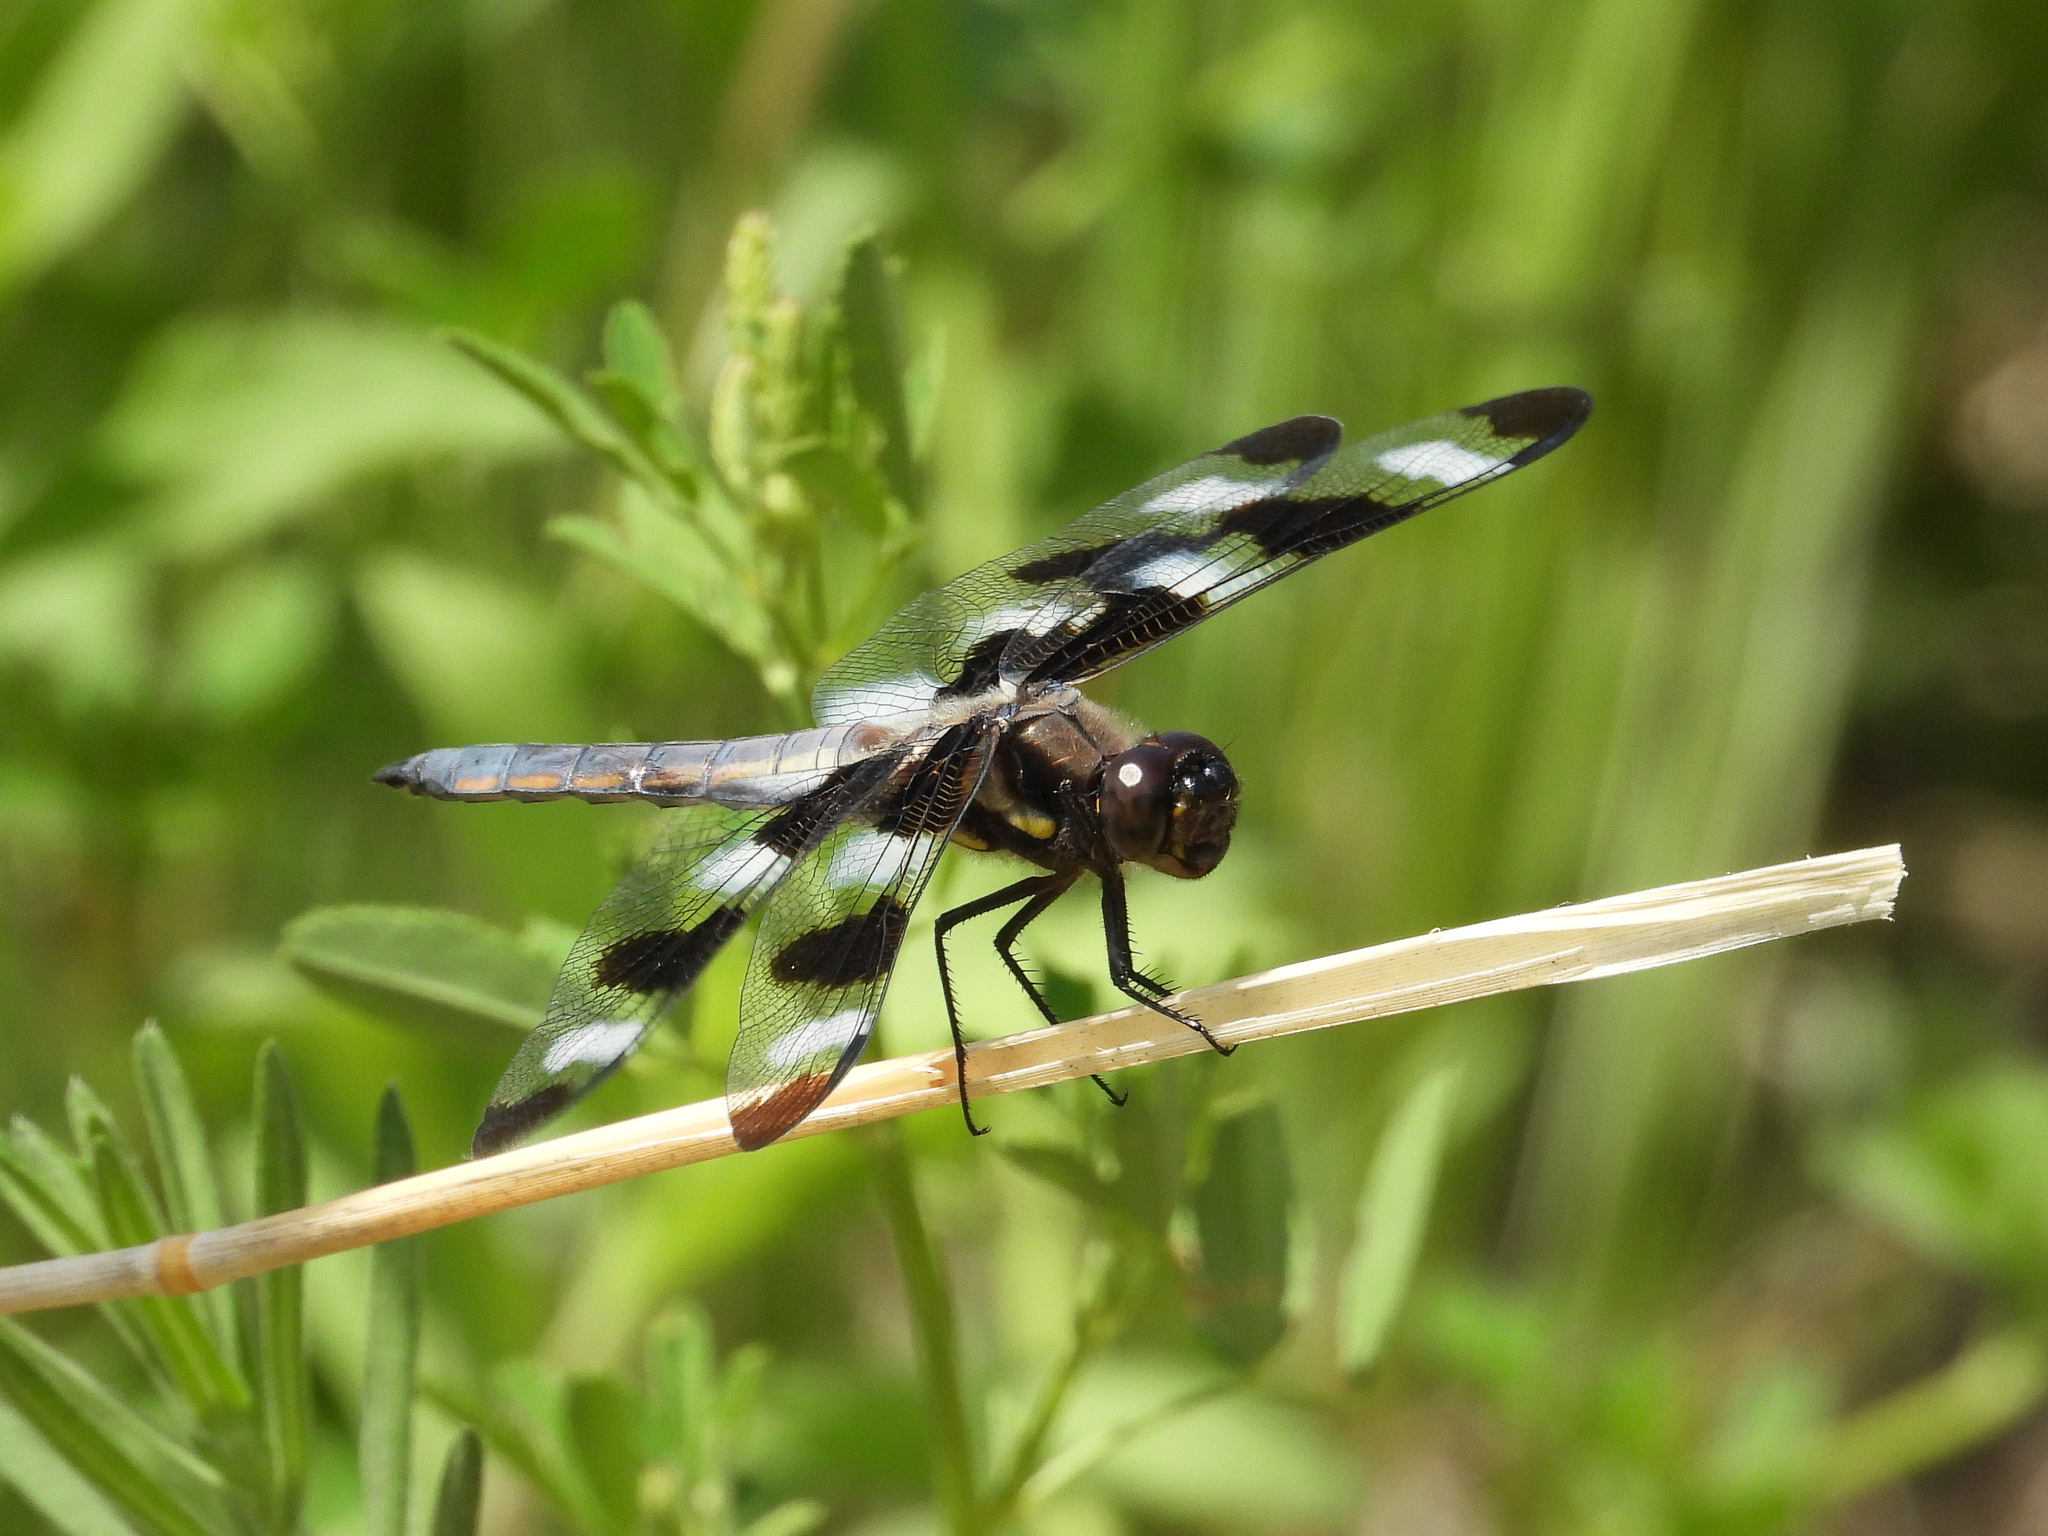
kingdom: Animalia
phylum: Arthropoda
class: Insecta
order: Odonata
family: Libellulidae
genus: Libellula
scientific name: Libellula pulchella
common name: Twelve-spotted skimmer
